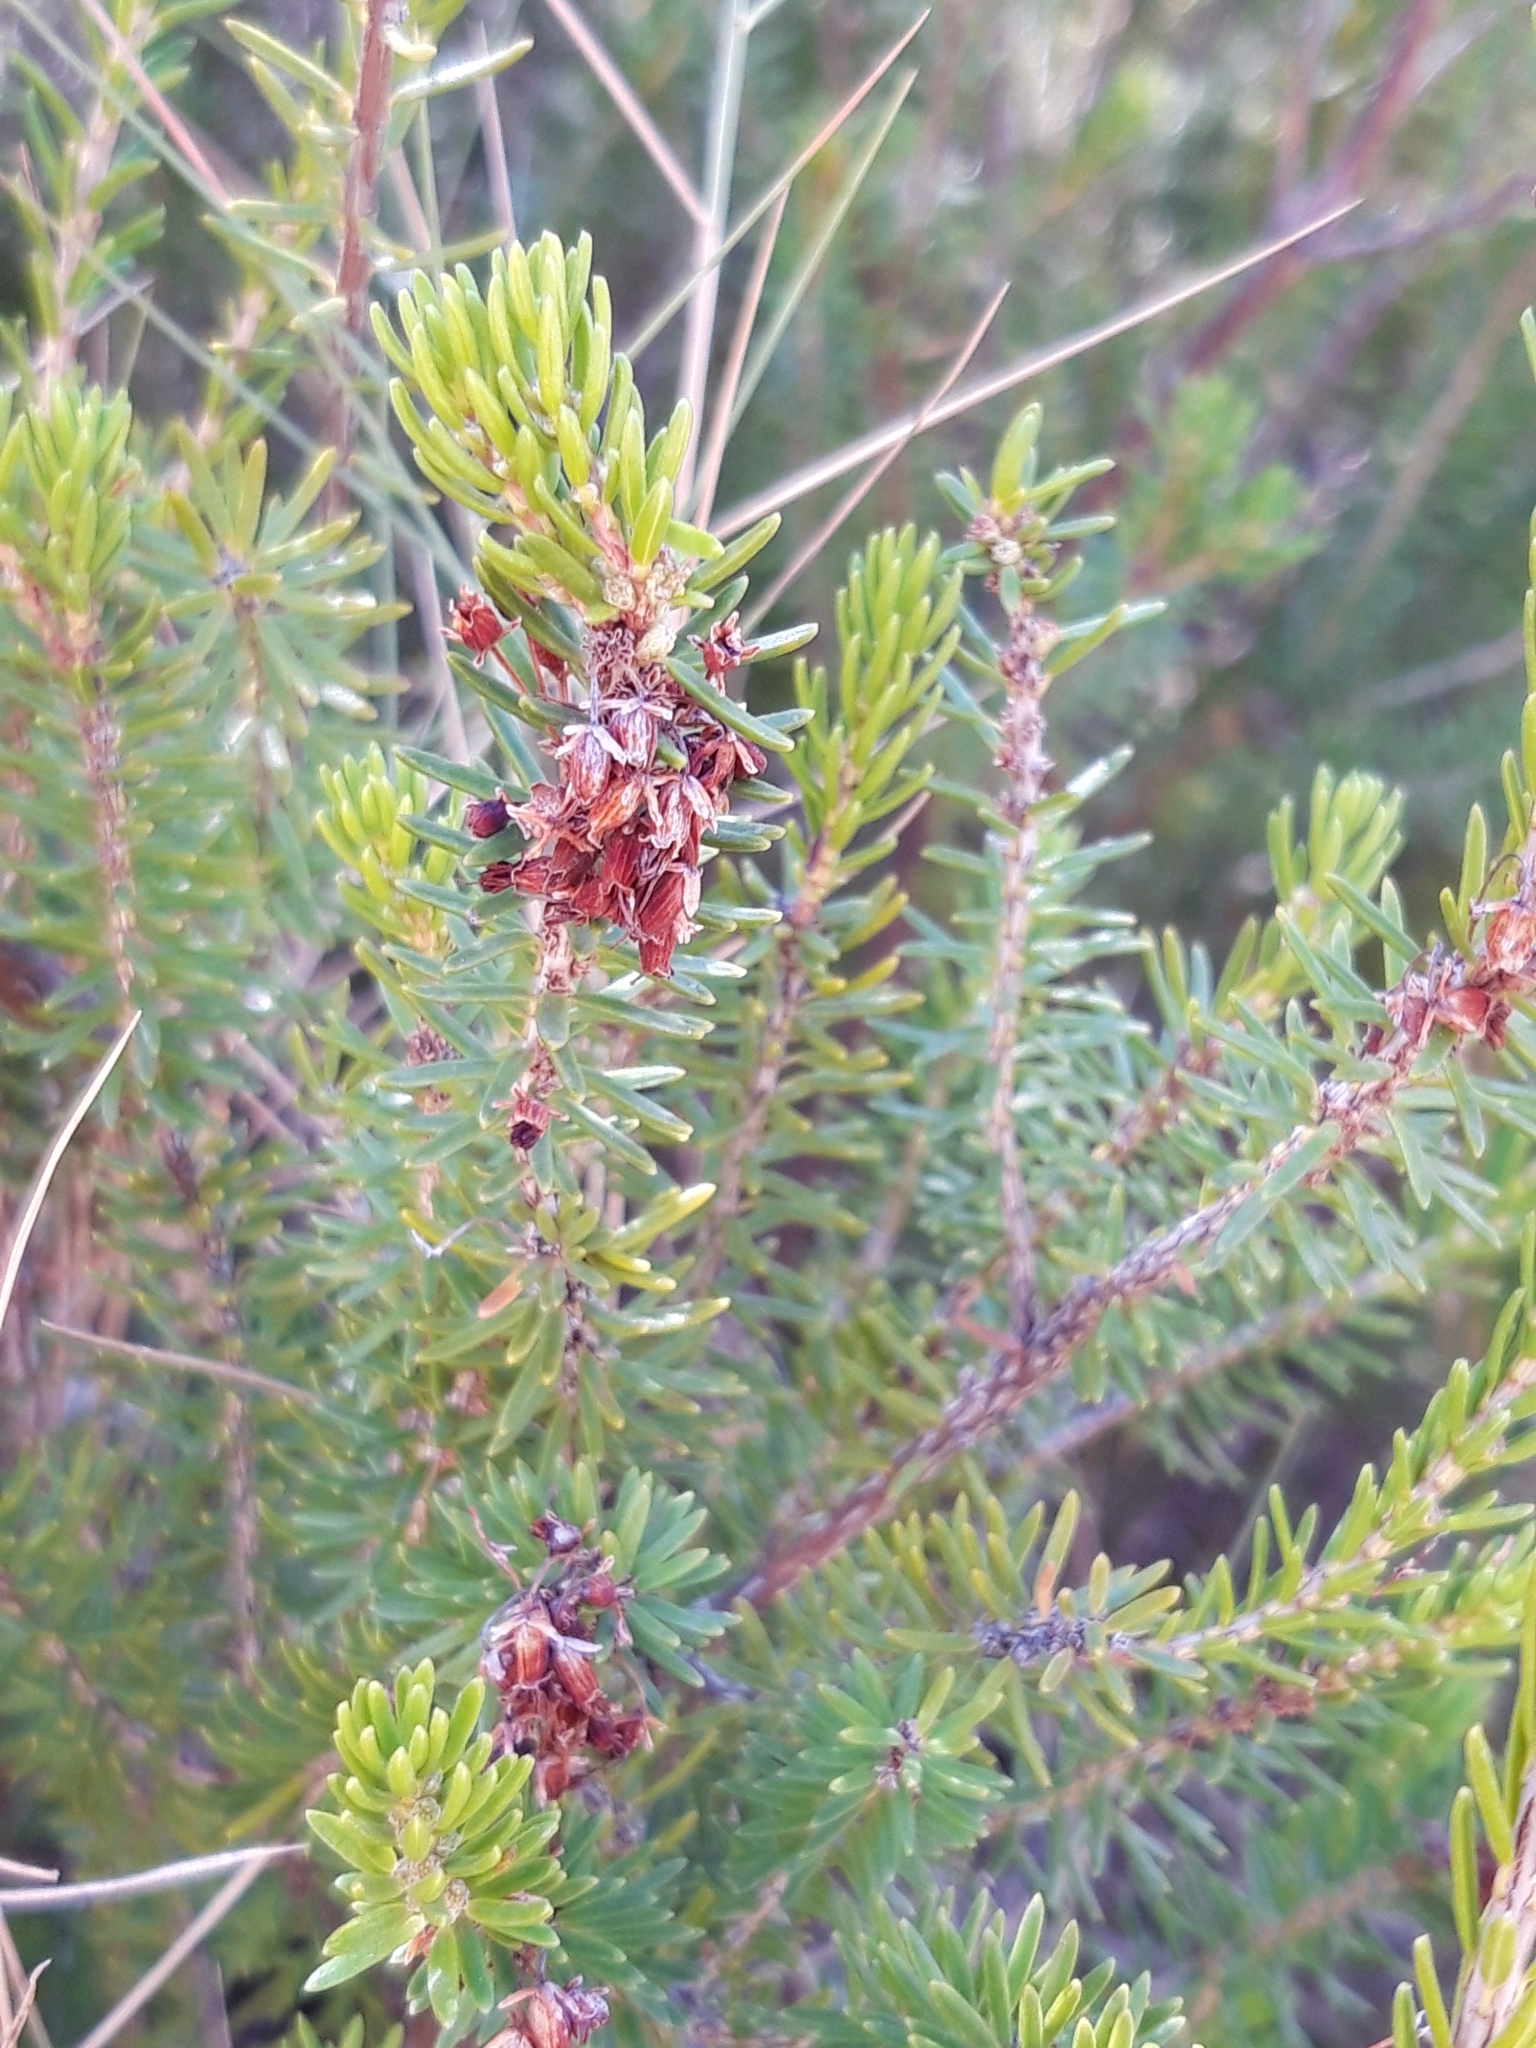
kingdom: Plantae
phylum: Tracheophyta
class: Magnoliopsida
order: Ericales
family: Ericaceae
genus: Erica
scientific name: Erica multiflora
